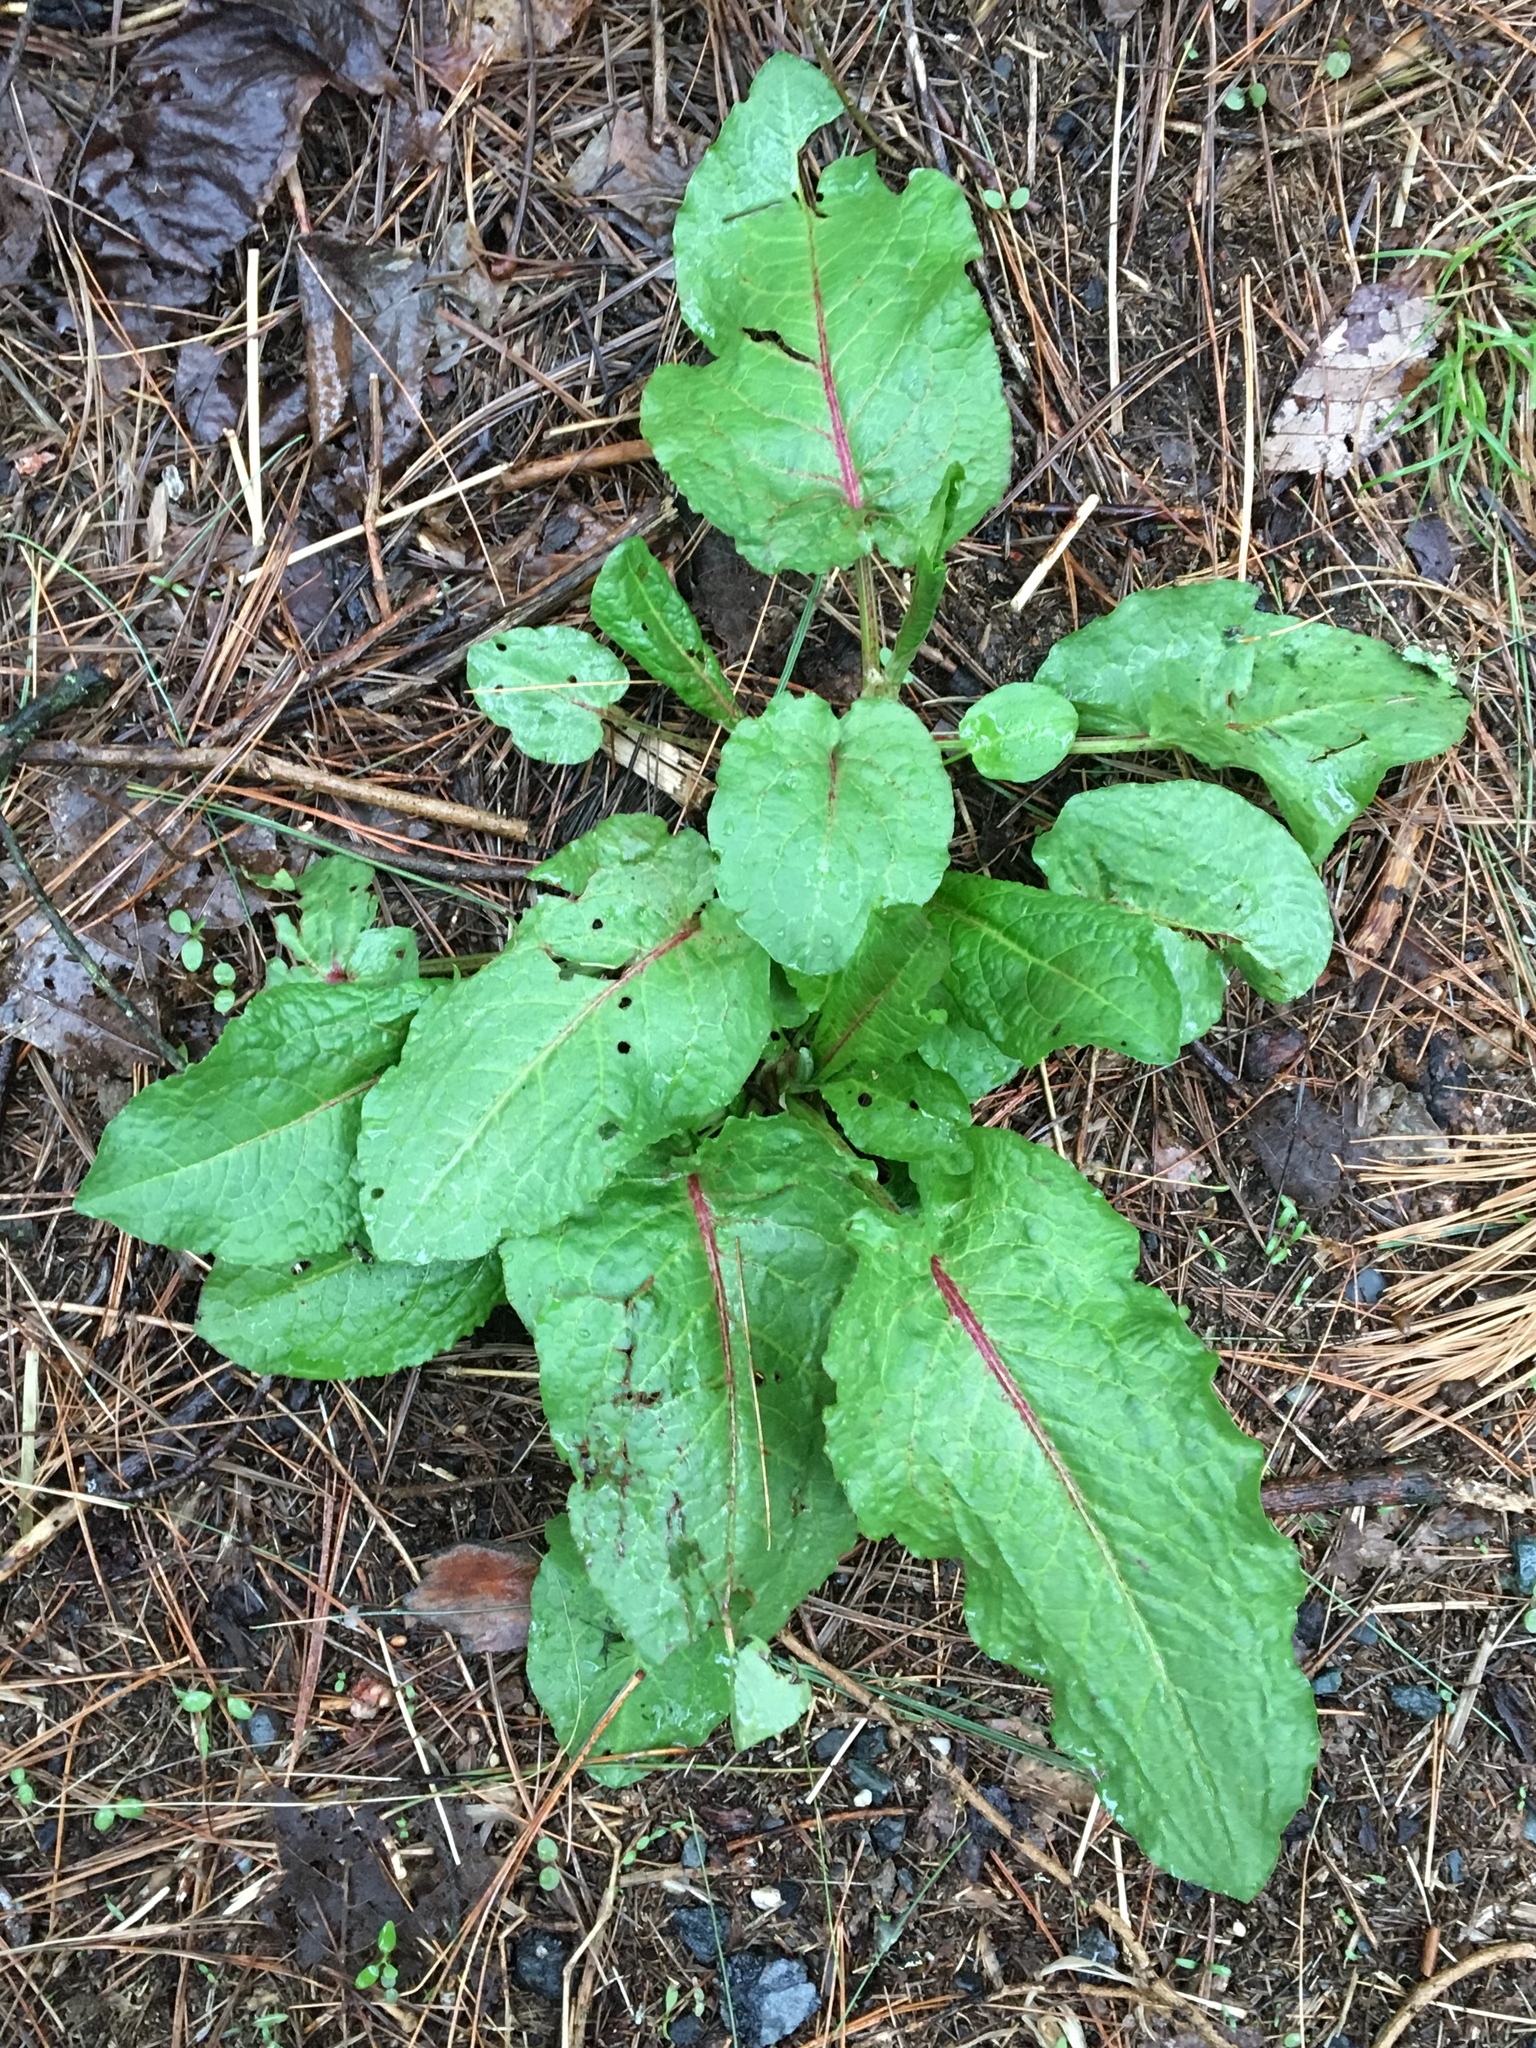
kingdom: Plantae
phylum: Tracheophyta
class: Magnoliopsida
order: Caryophyllales
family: Polygonaceae
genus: Rumex
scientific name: Rumex obtusifolius
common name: Bitter dock
